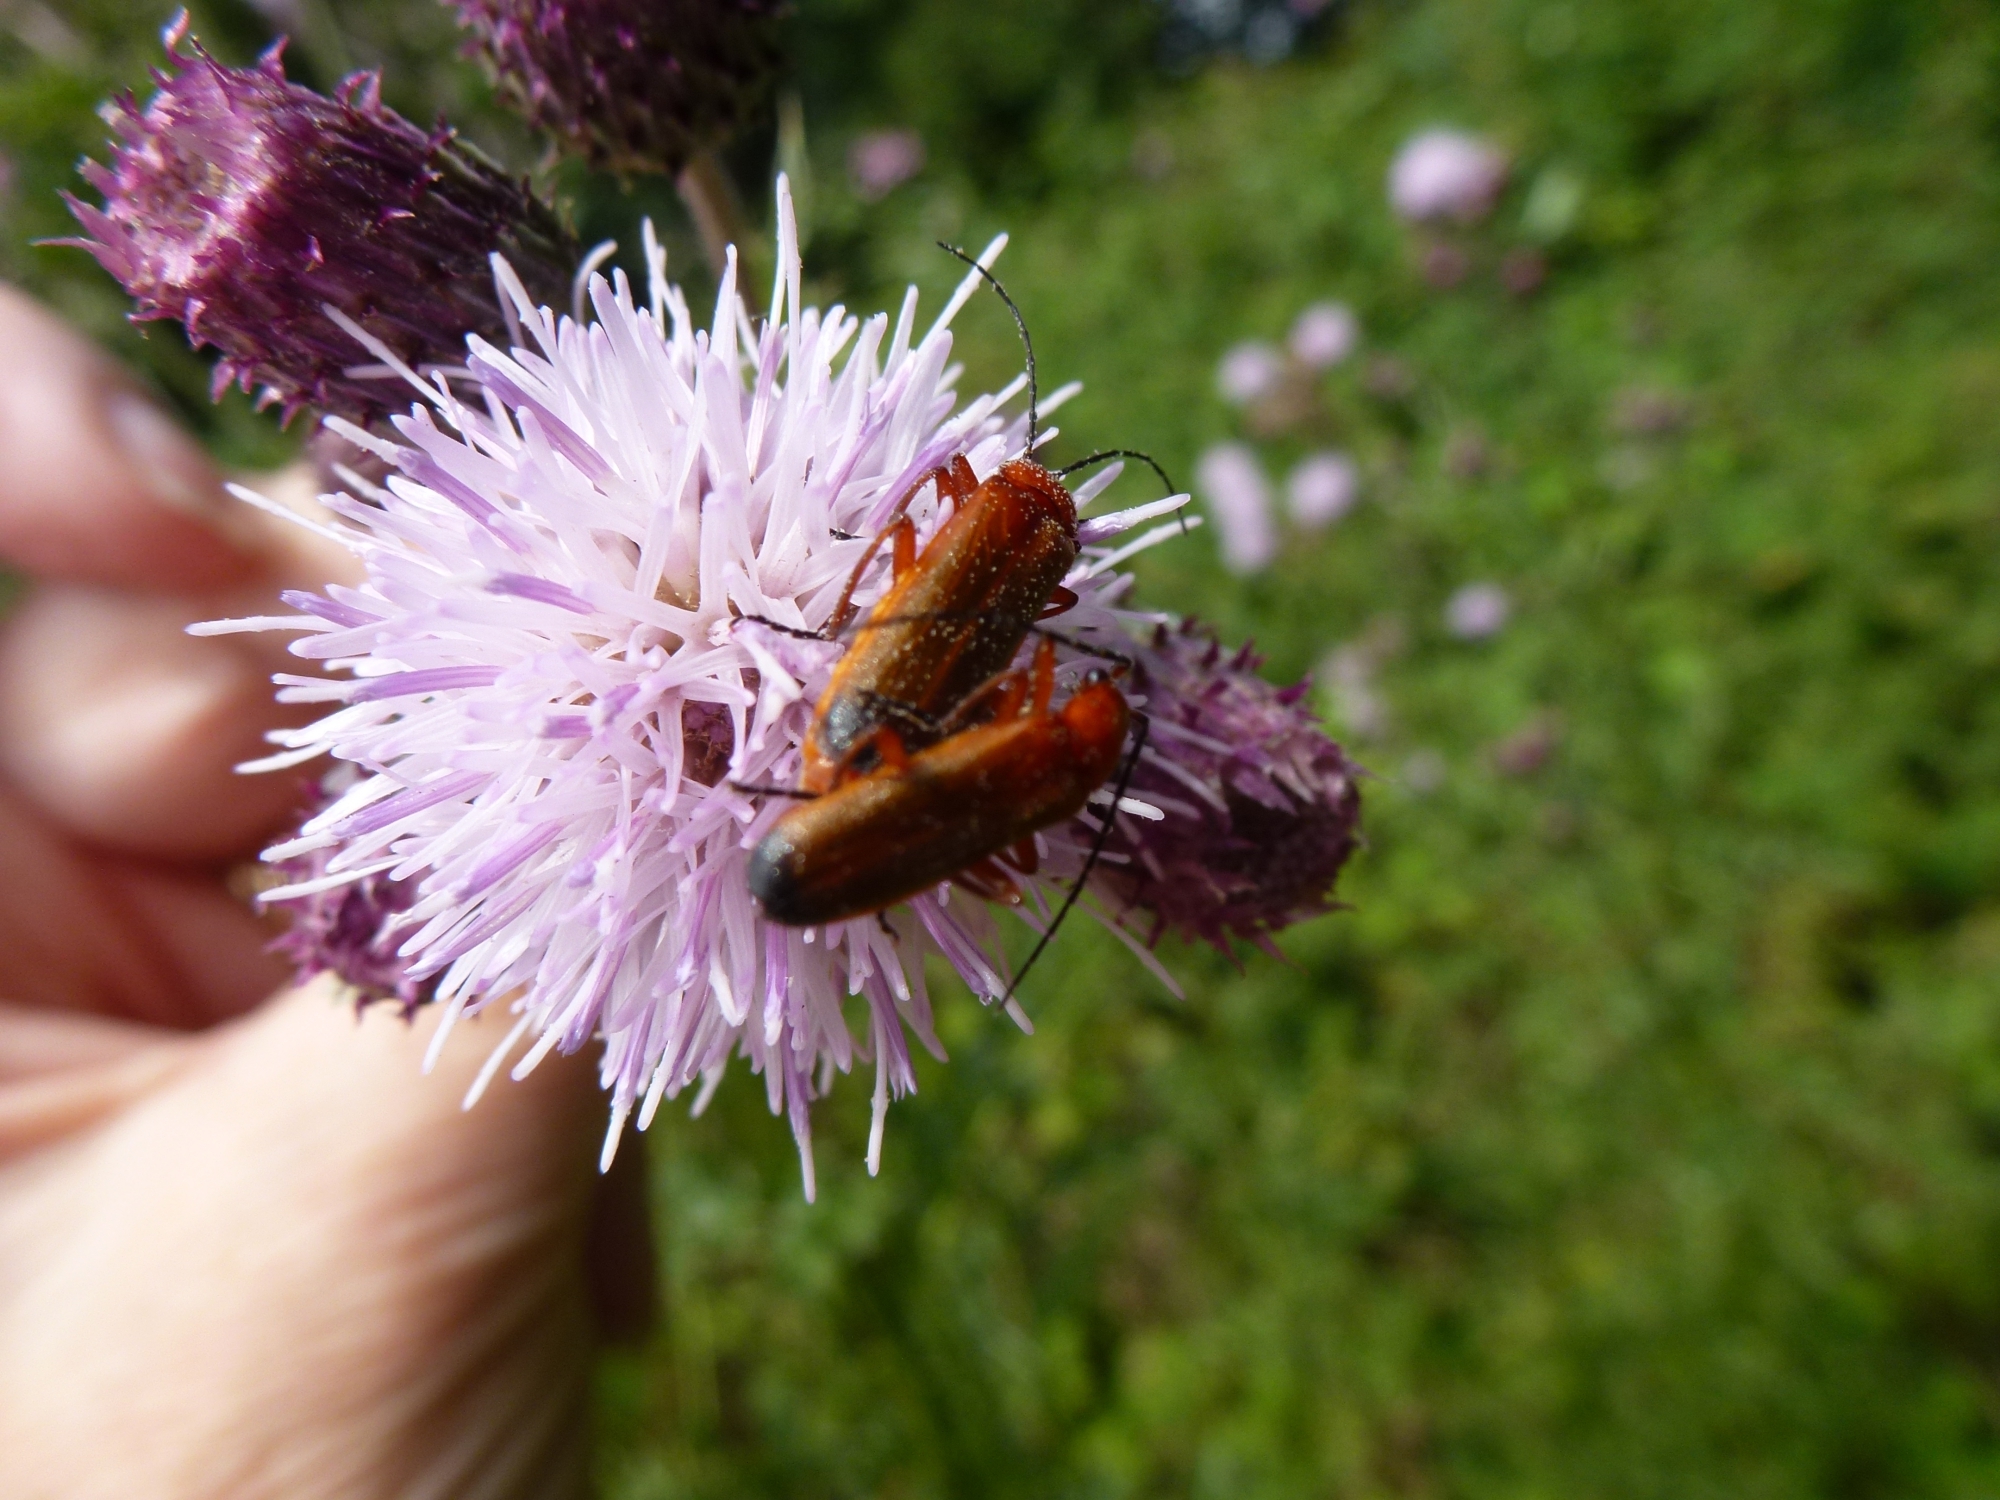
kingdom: Animalia
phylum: Arthropoda
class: Insecta
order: Coleoptera
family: Cantharidae
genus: Rhagonycha
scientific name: Rhagonycha fulva
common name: Common red soldier beetle
